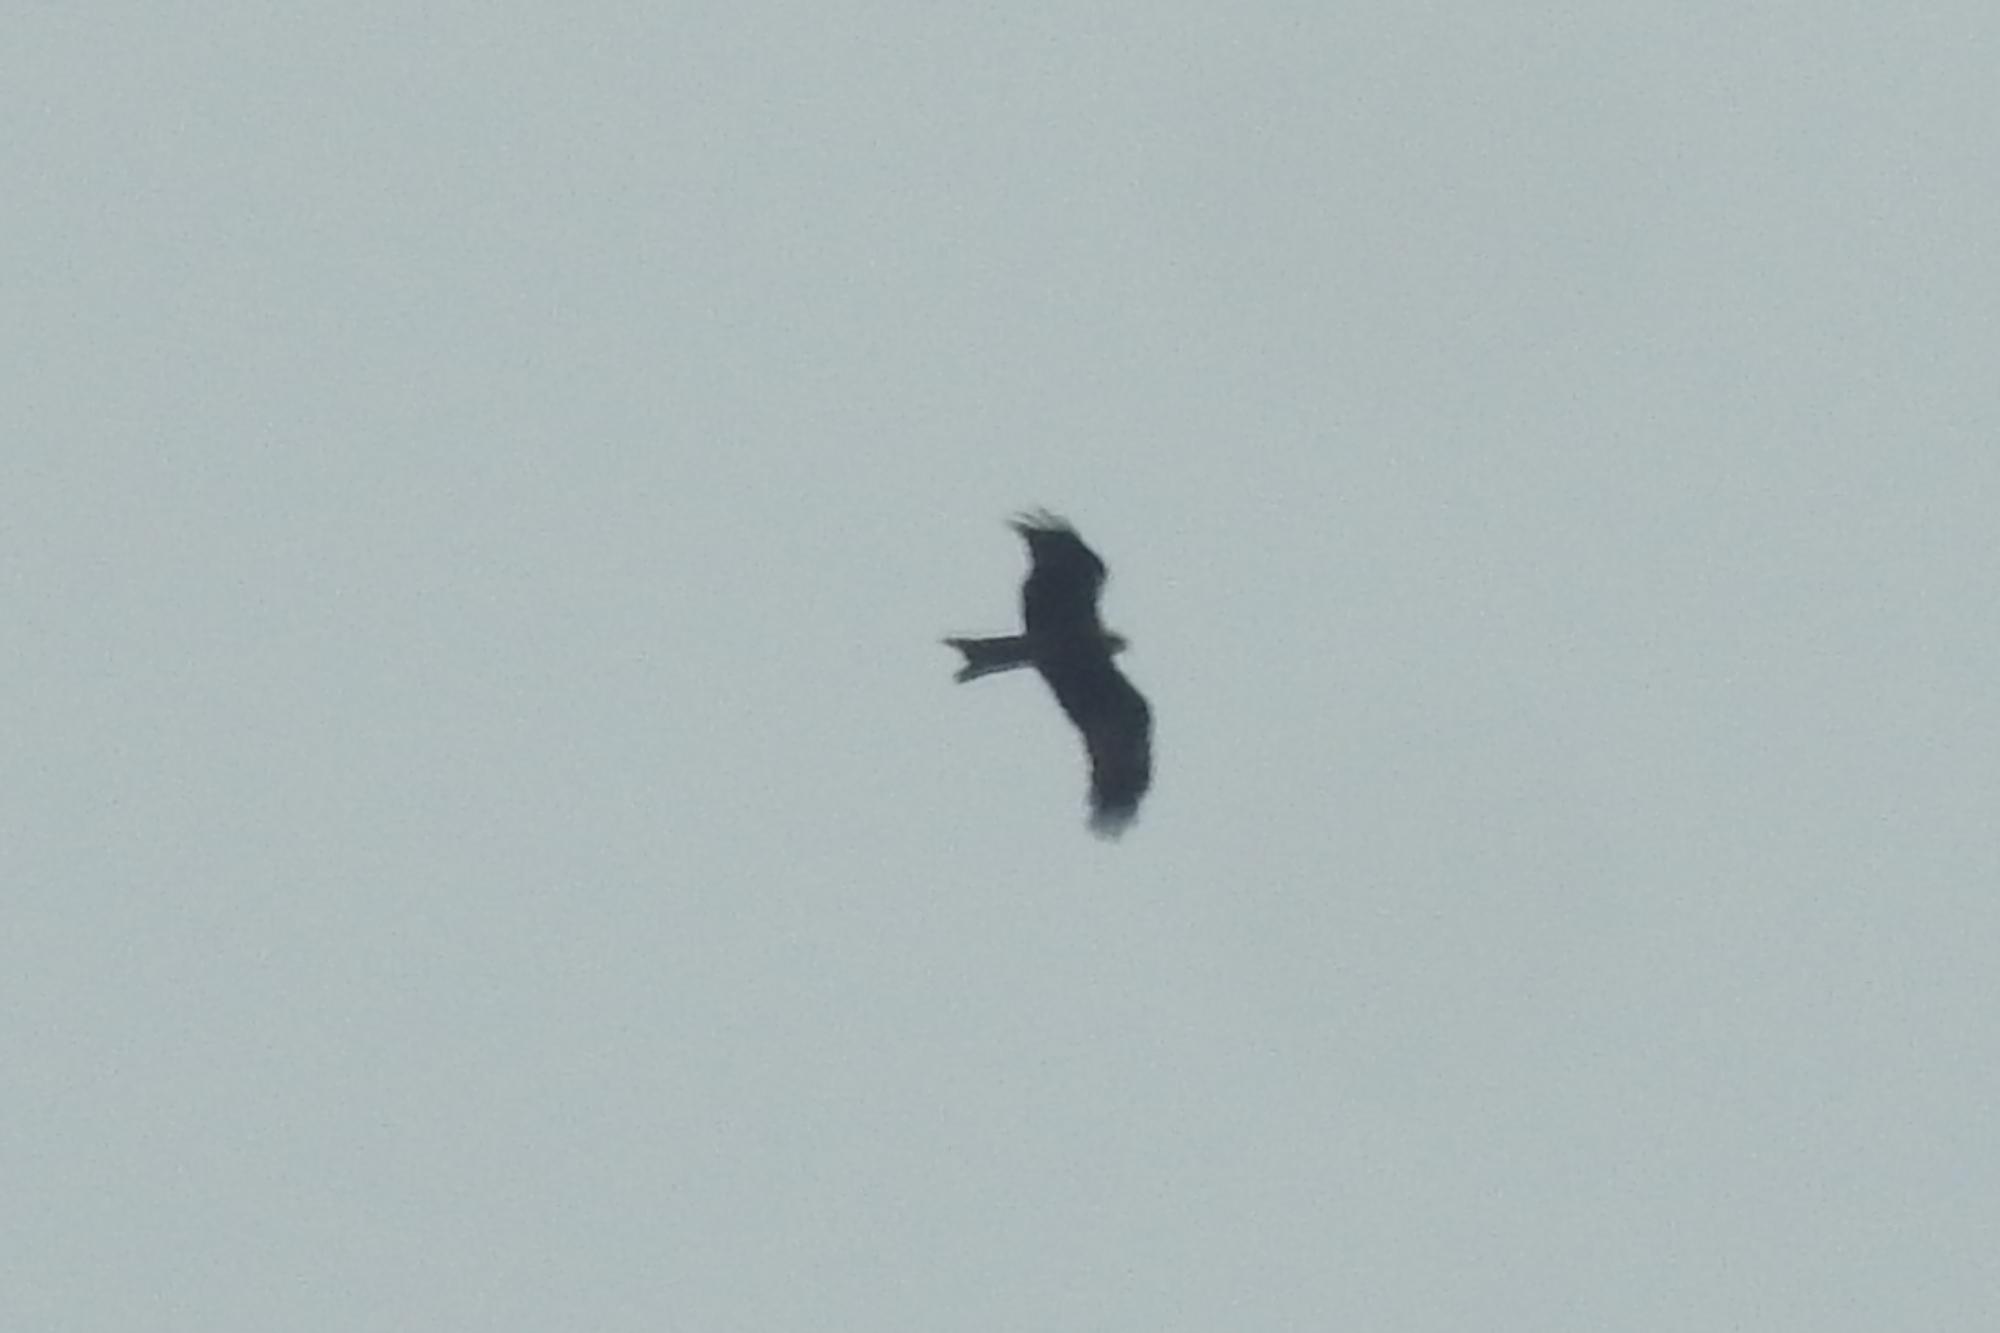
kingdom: Animalia
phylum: Chordata
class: Aves
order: Accipitriformes
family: Accipitridae
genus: Milvus
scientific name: Milvus migrans
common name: Black kite
